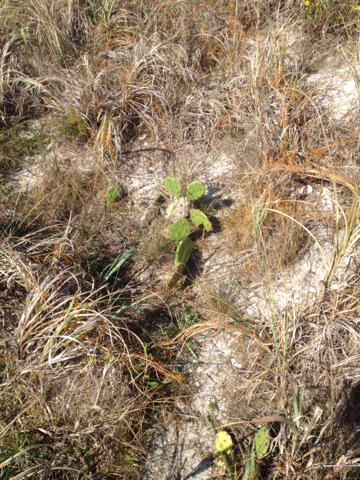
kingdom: Plantae
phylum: Tracheophyta
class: Magnoliopsida
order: Caryophyllales
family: Cactaceae
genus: Opuntia
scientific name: Opuntia humifusa
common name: Eastern prickly-pear
